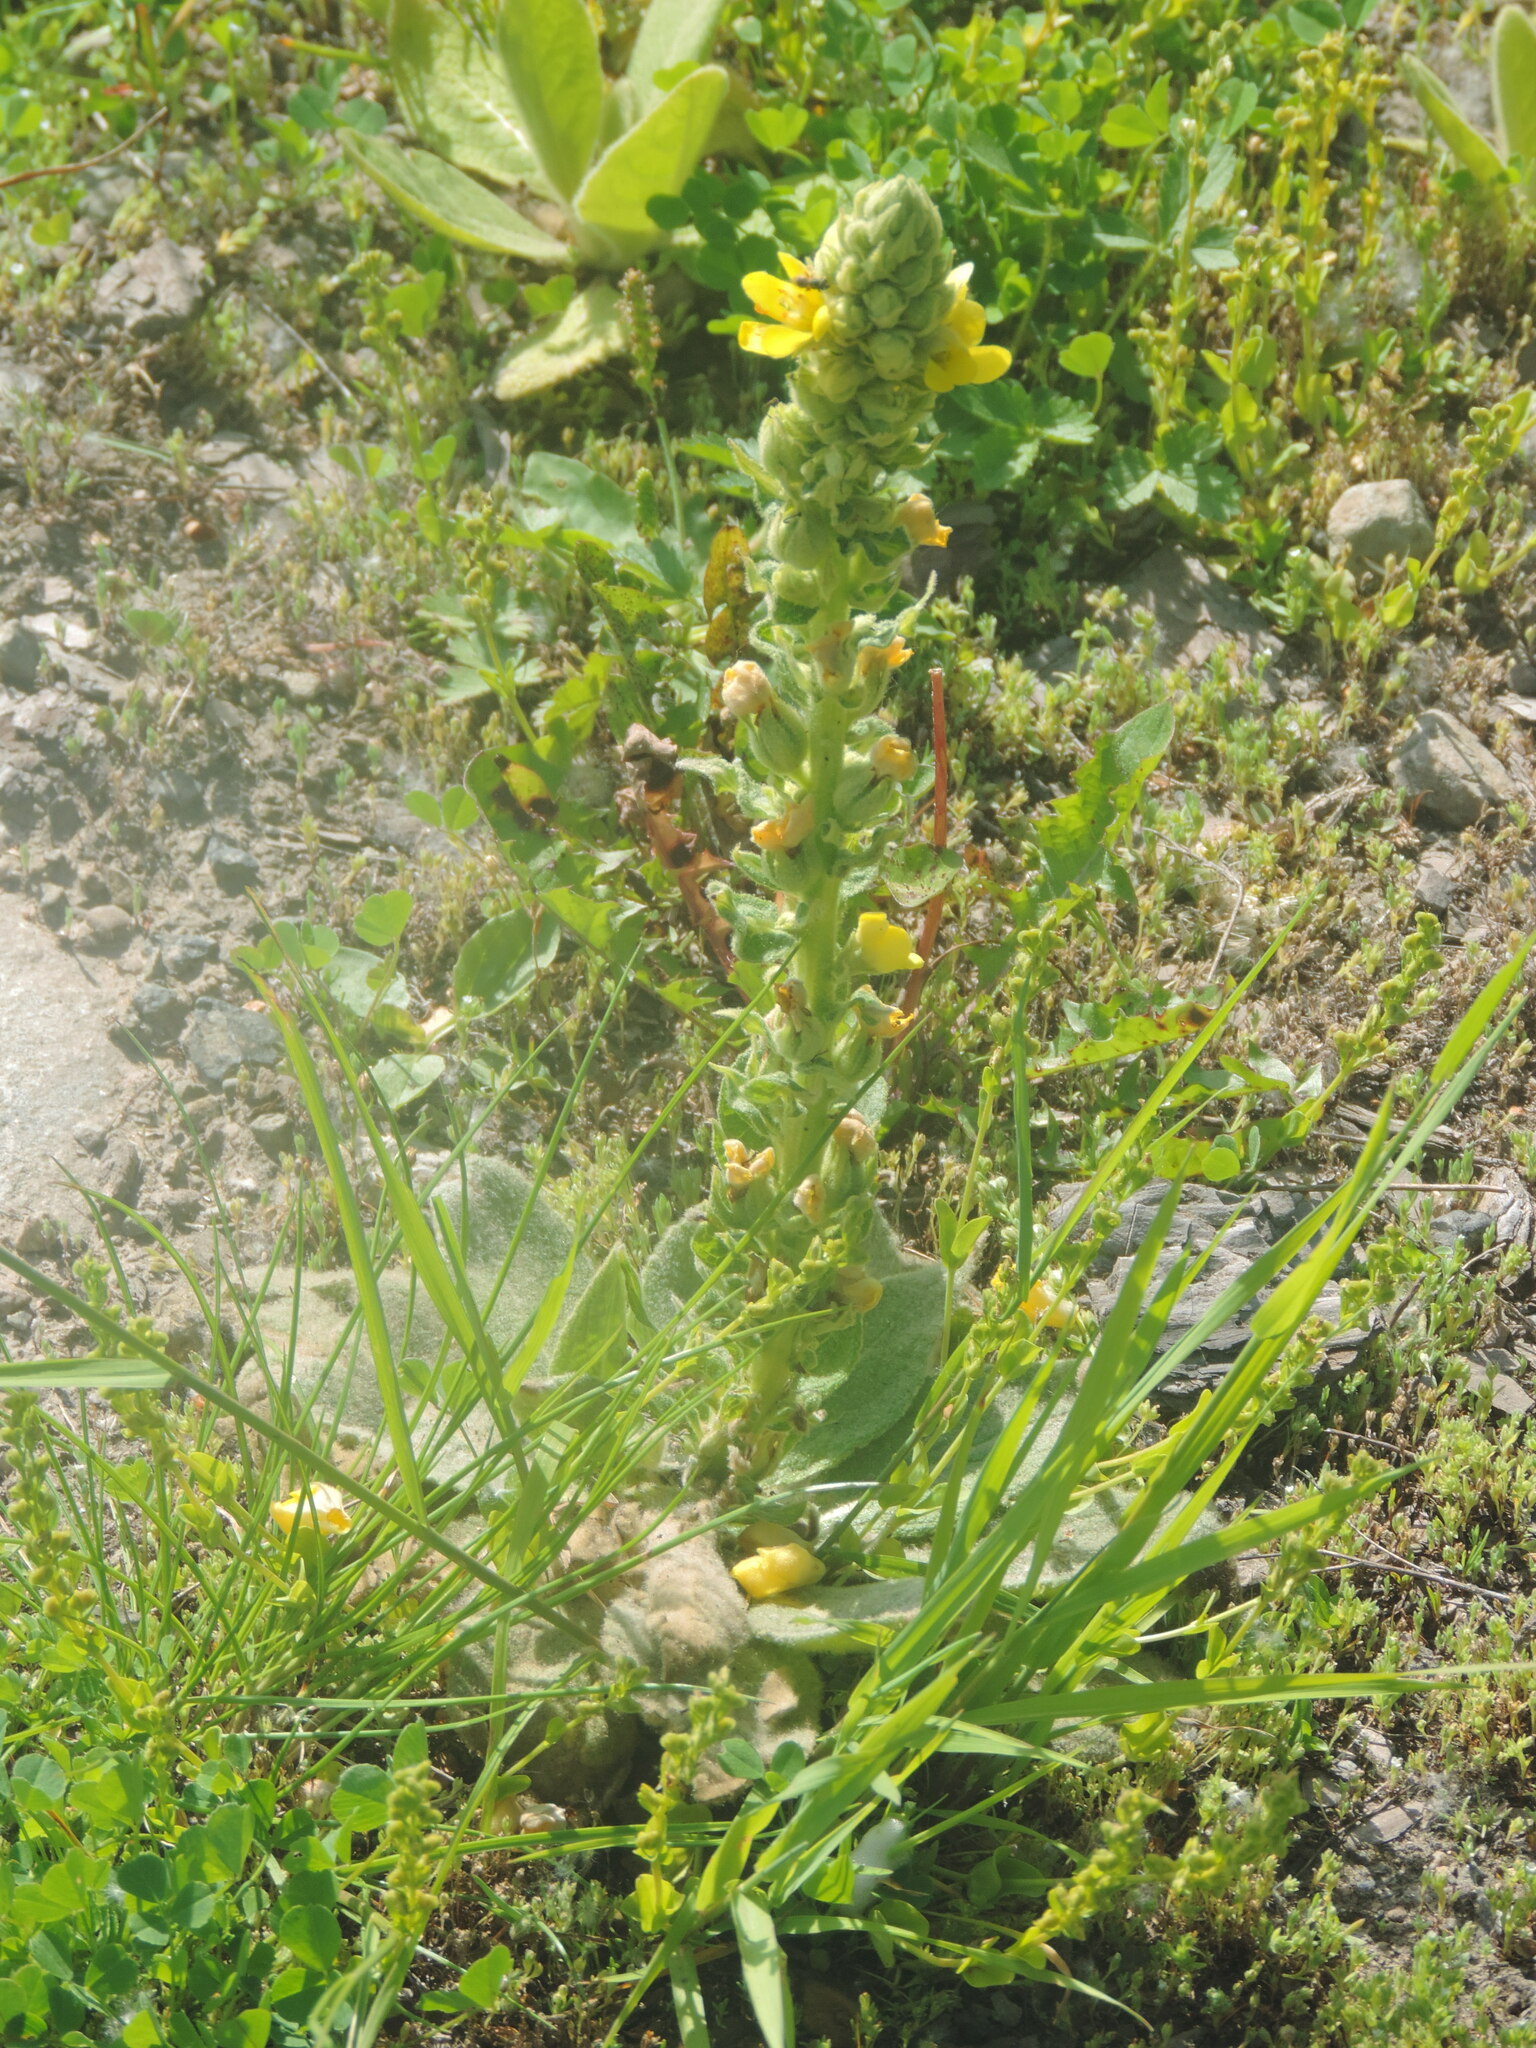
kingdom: Plantae
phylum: Tracheophyta
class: Magnoliopsida
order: Lamiales
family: Scrophulariaceae
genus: Verbascum
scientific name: Verbascum thapsus
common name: Common mullein
